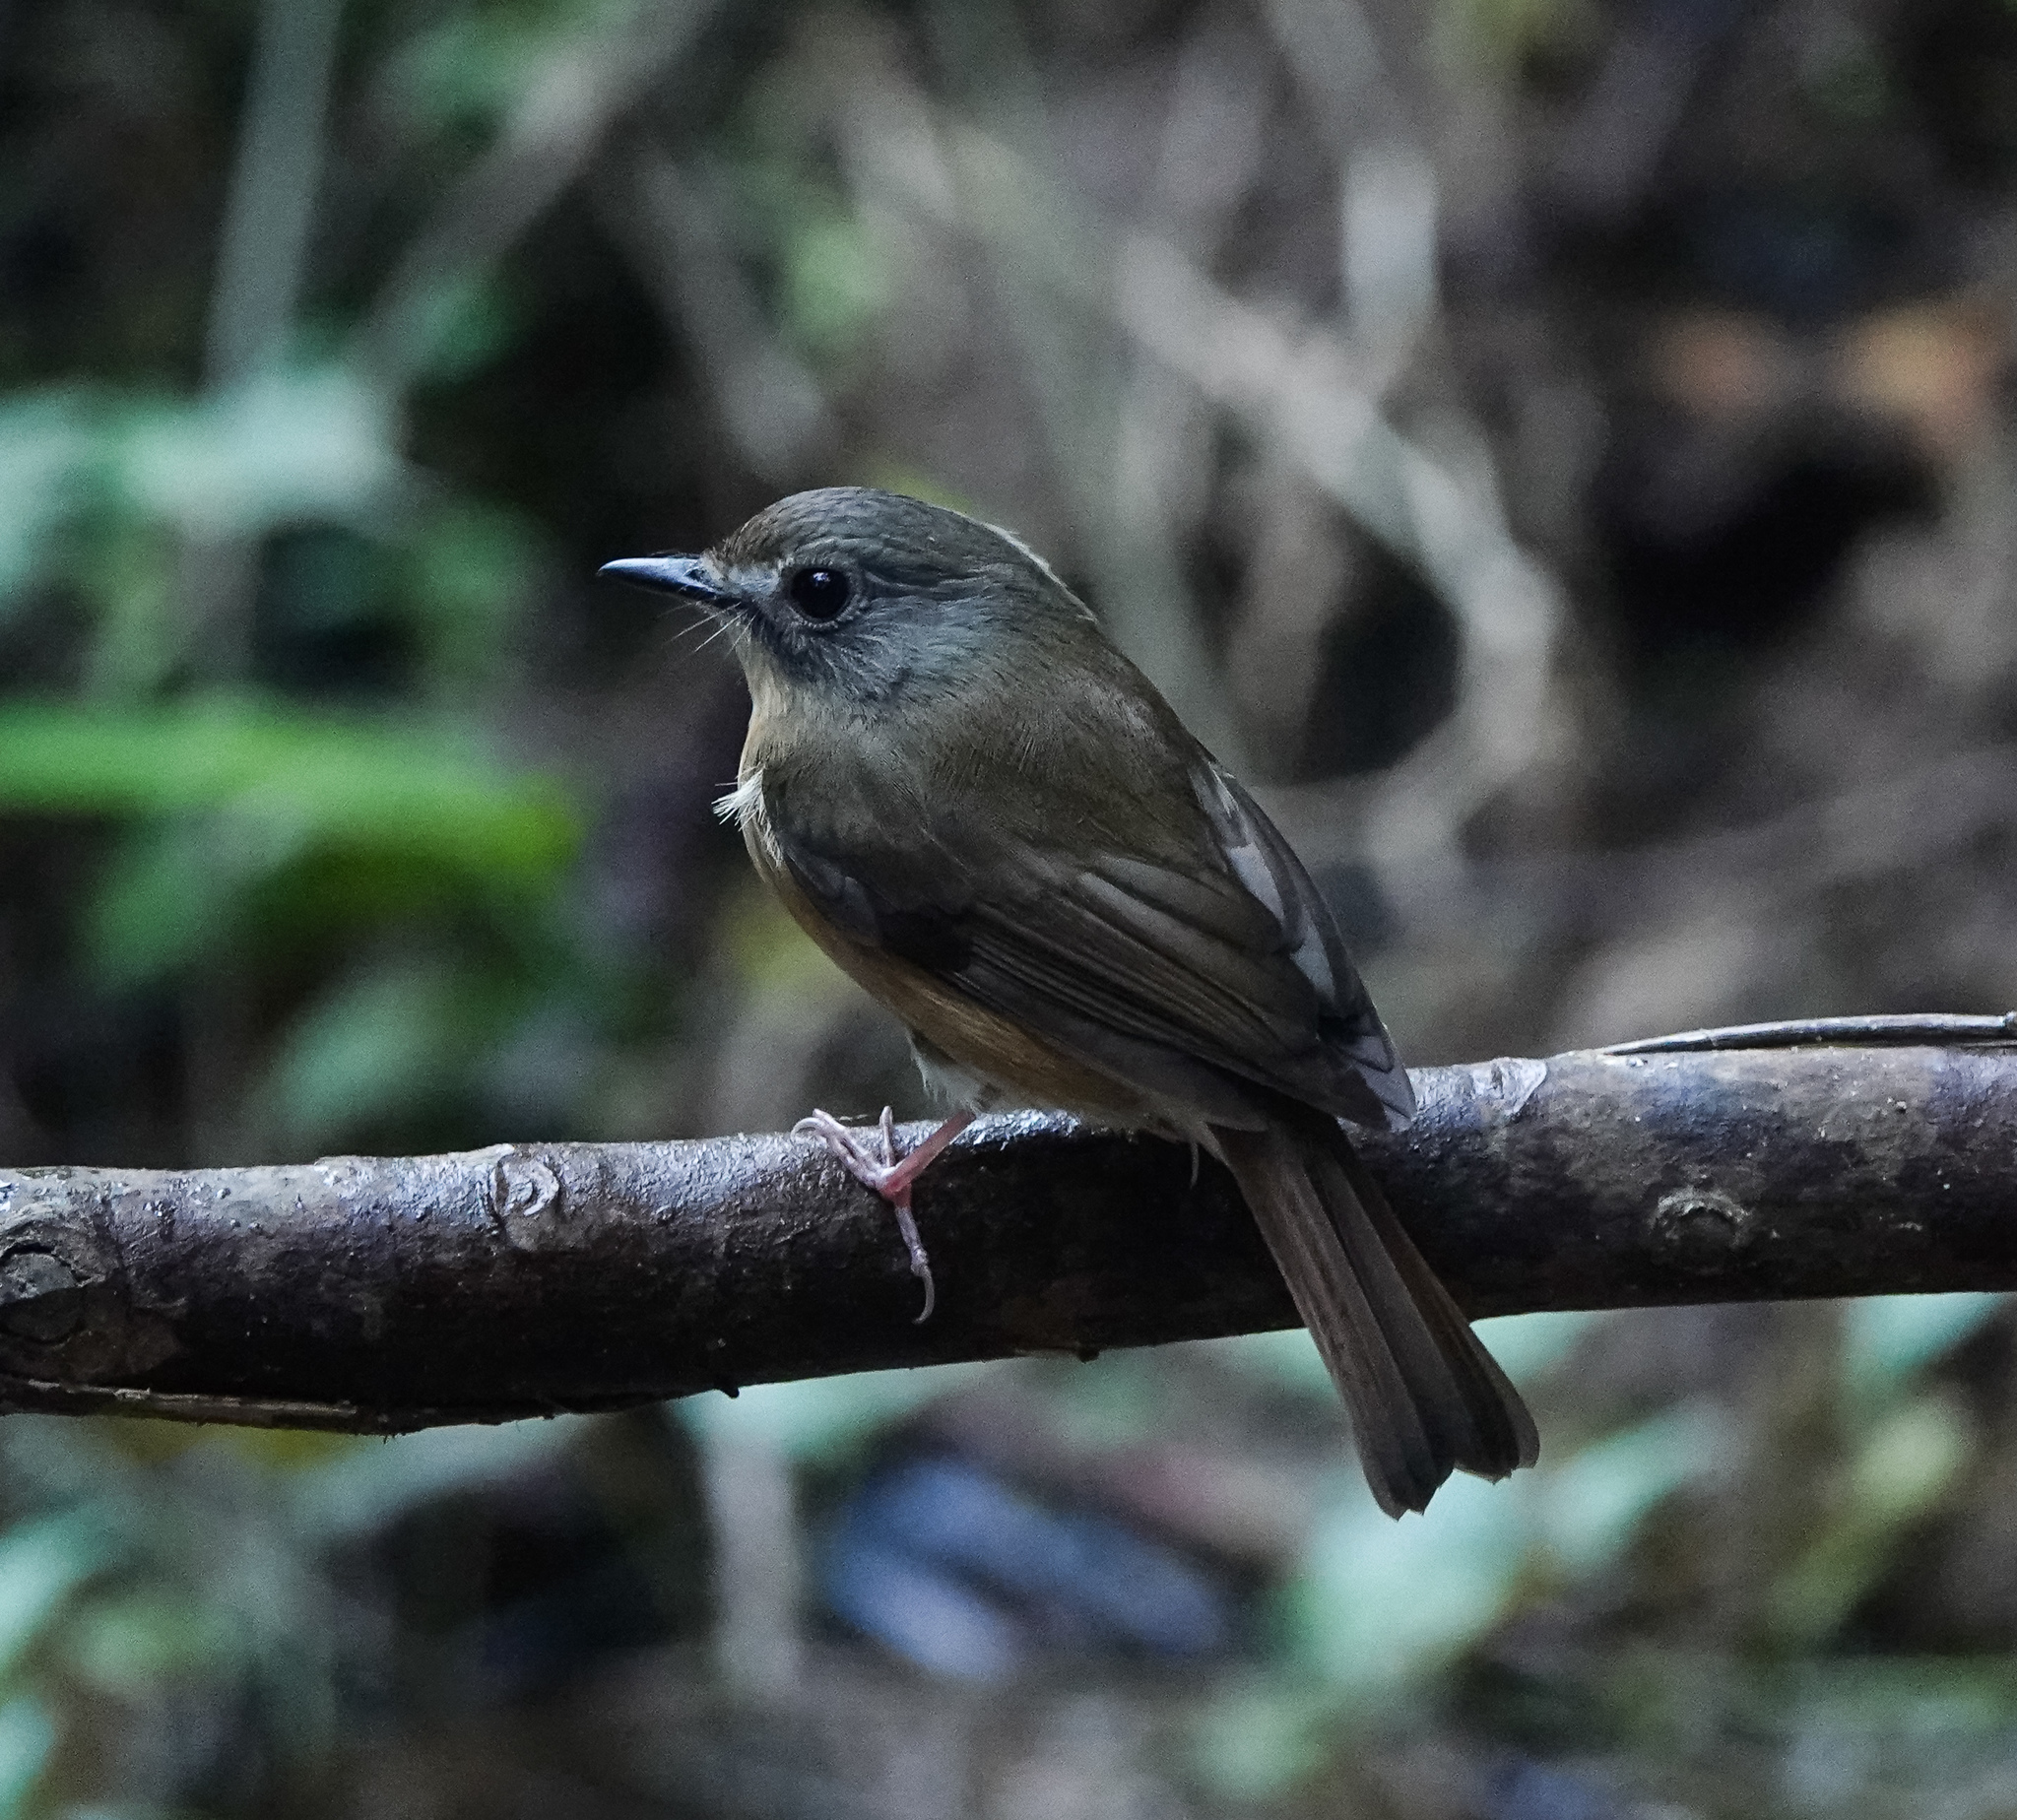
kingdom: Animalia
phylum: Chordata
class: Aves
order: Passeriformes
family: Muscicapidae
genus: Cyornis
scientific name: Cyornis poliogenys
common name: Pale-chinned blue flycatcher
